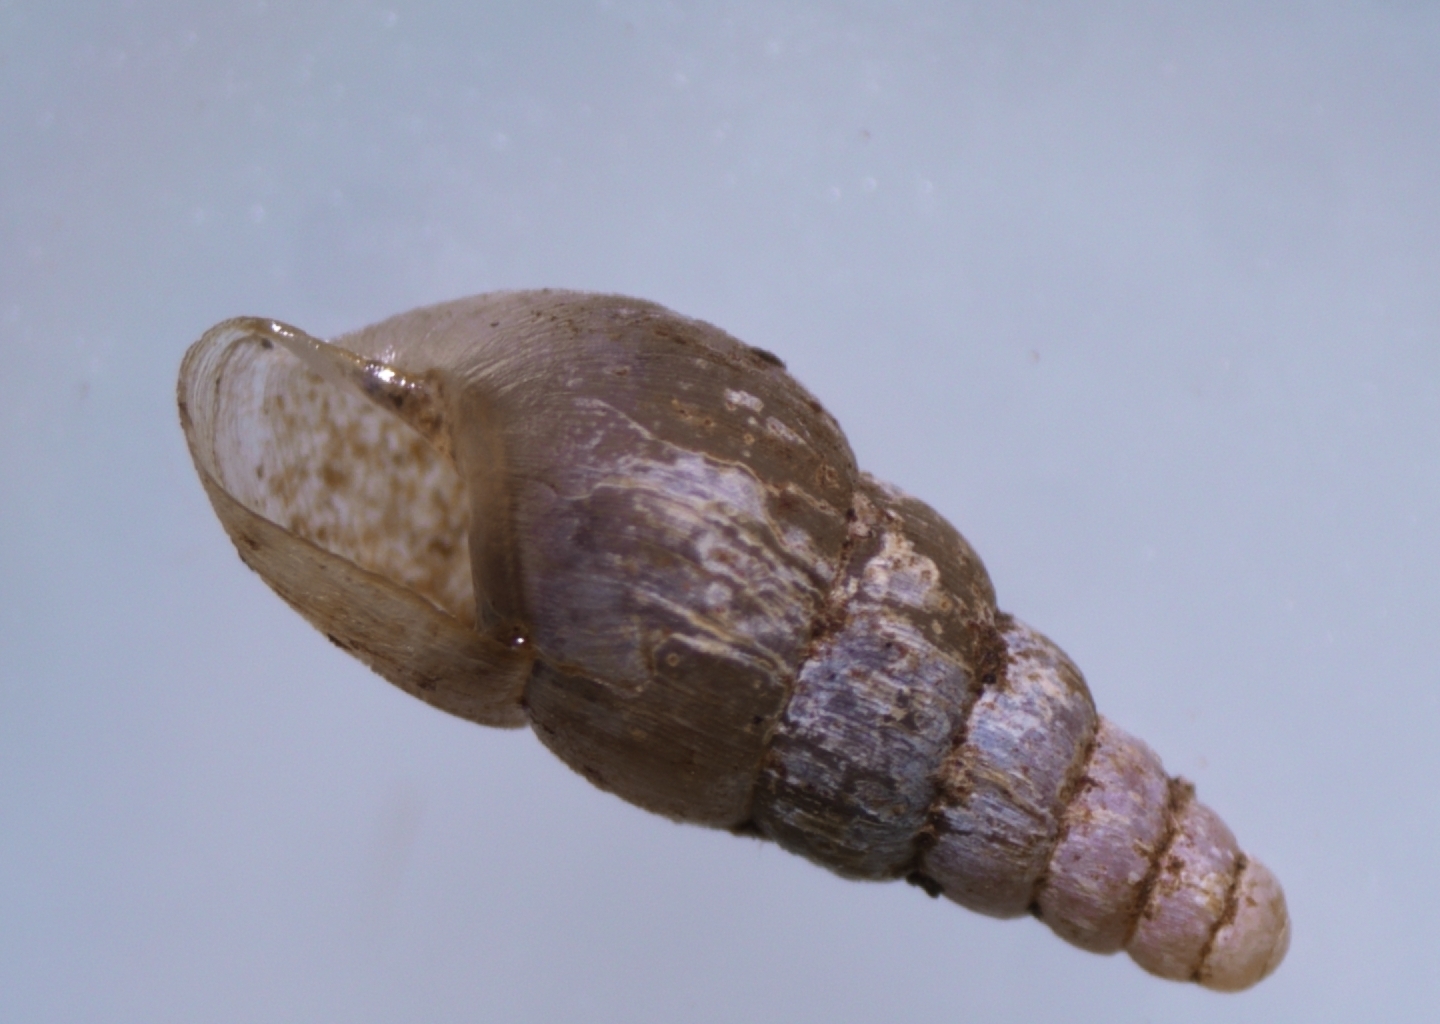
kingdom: Animalia
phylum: Mollusca
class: Gastropoda
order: Stylommatophora
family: Achatinidae
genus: Paropeas
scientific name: Paropeas achatinaceum
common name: Snail
